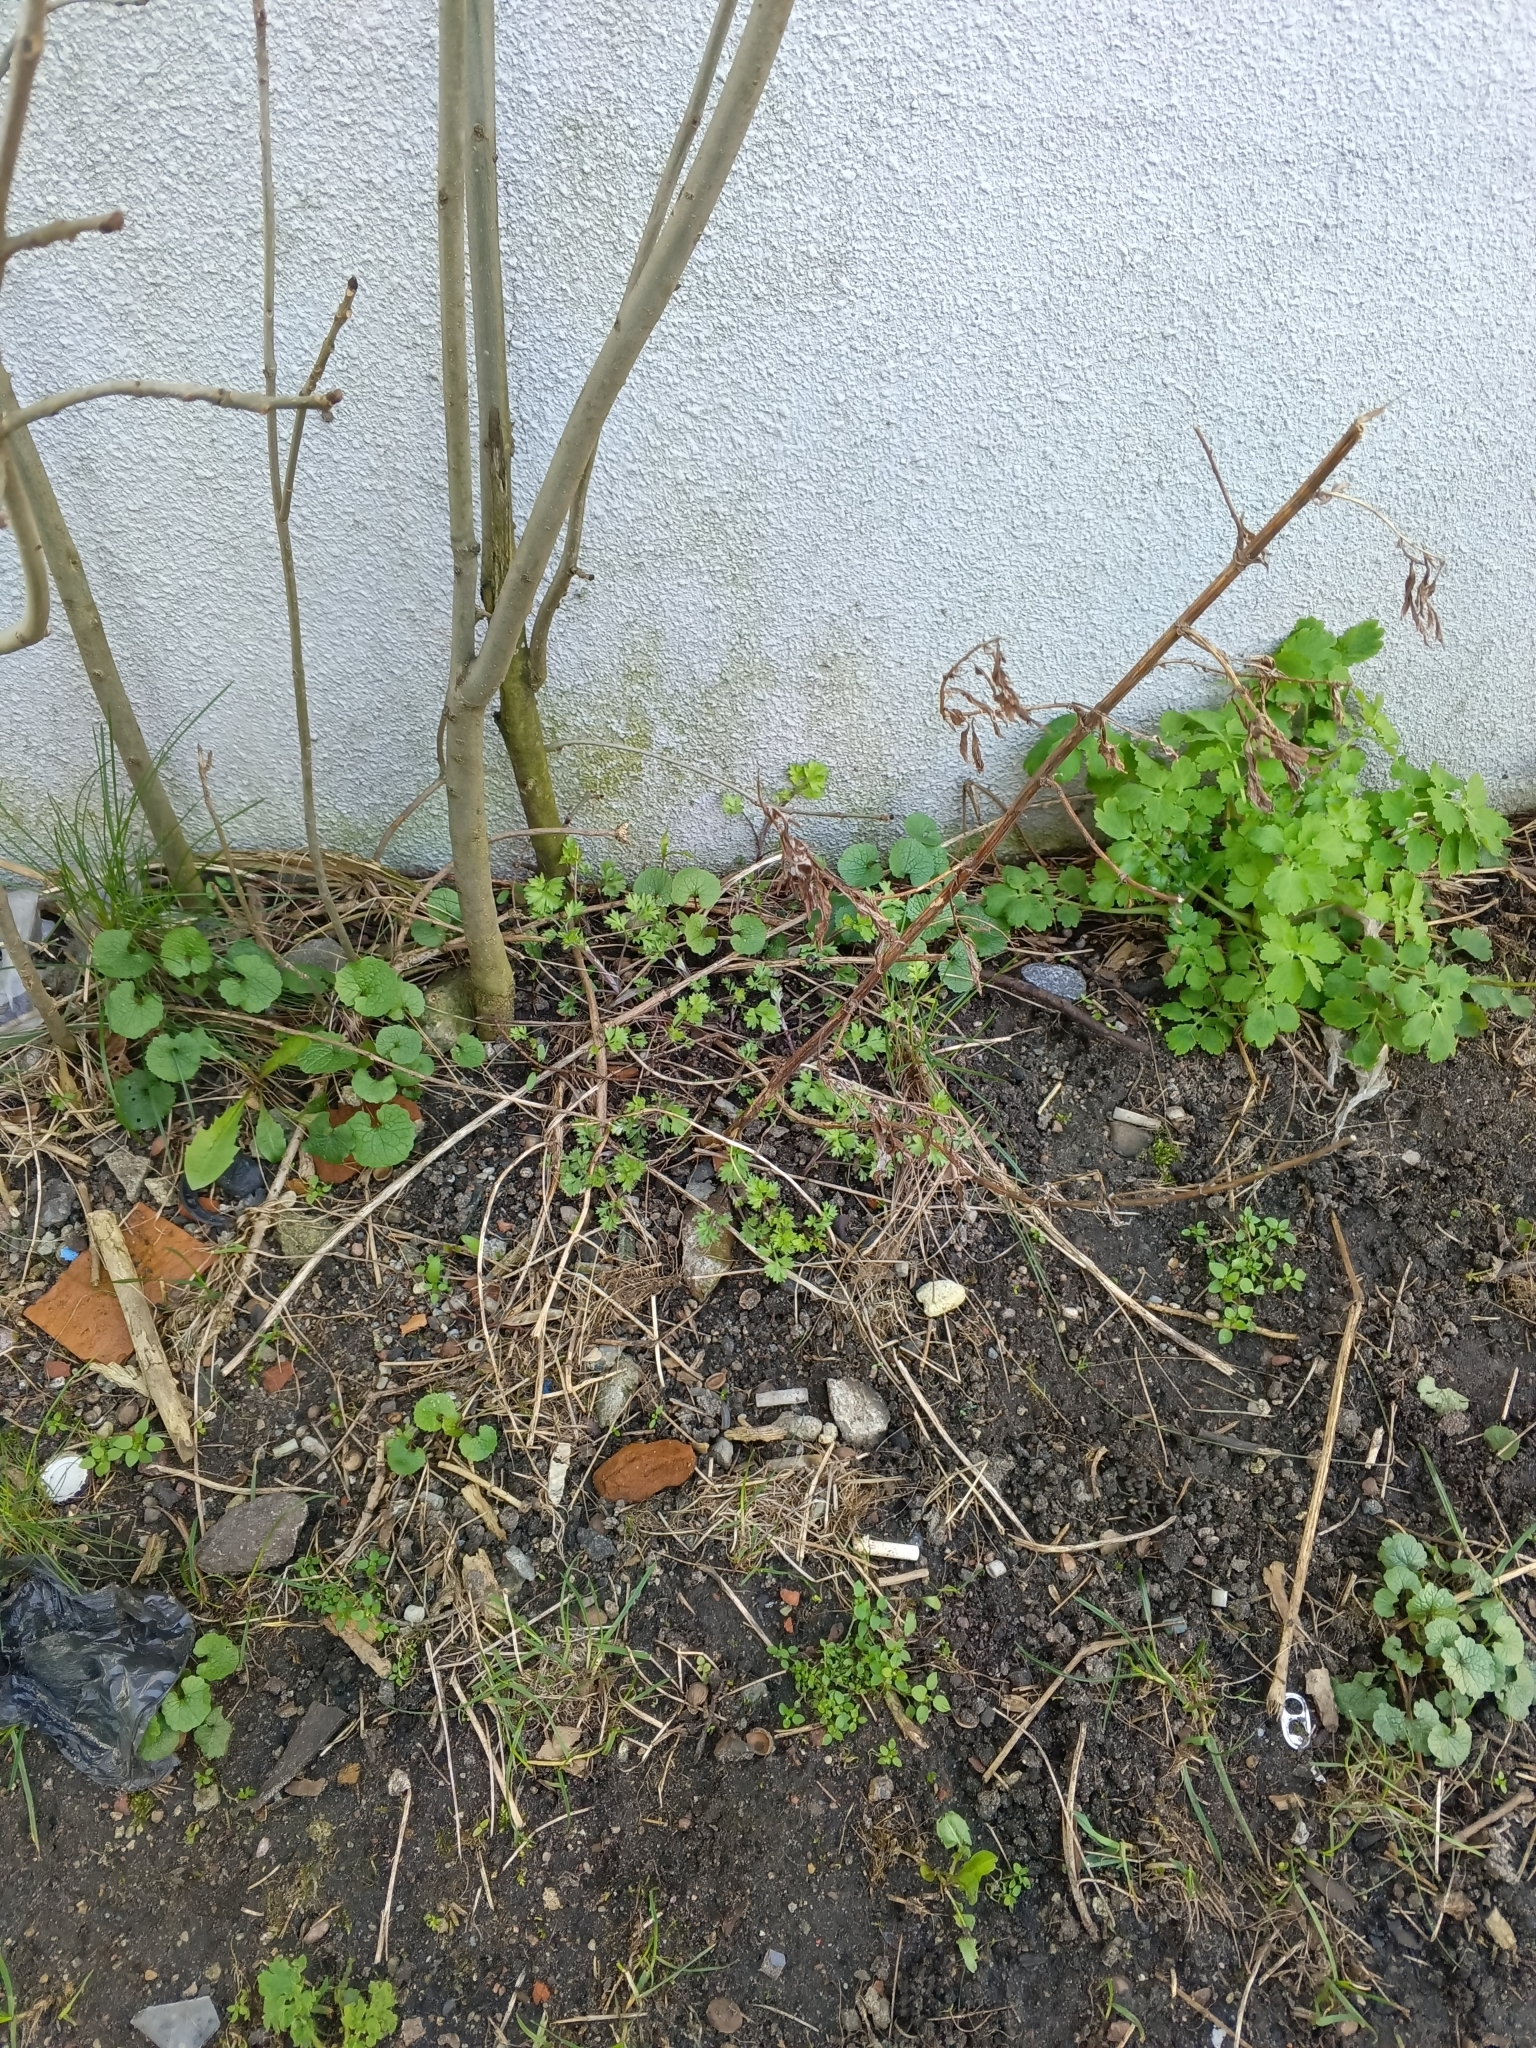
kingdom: Plantae
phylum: Tracheophyta
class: Magnoliopsida
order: Asterales
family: Asteraceae
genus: Artemisia
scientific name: Artemisia vulgaris
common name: Mugwort
